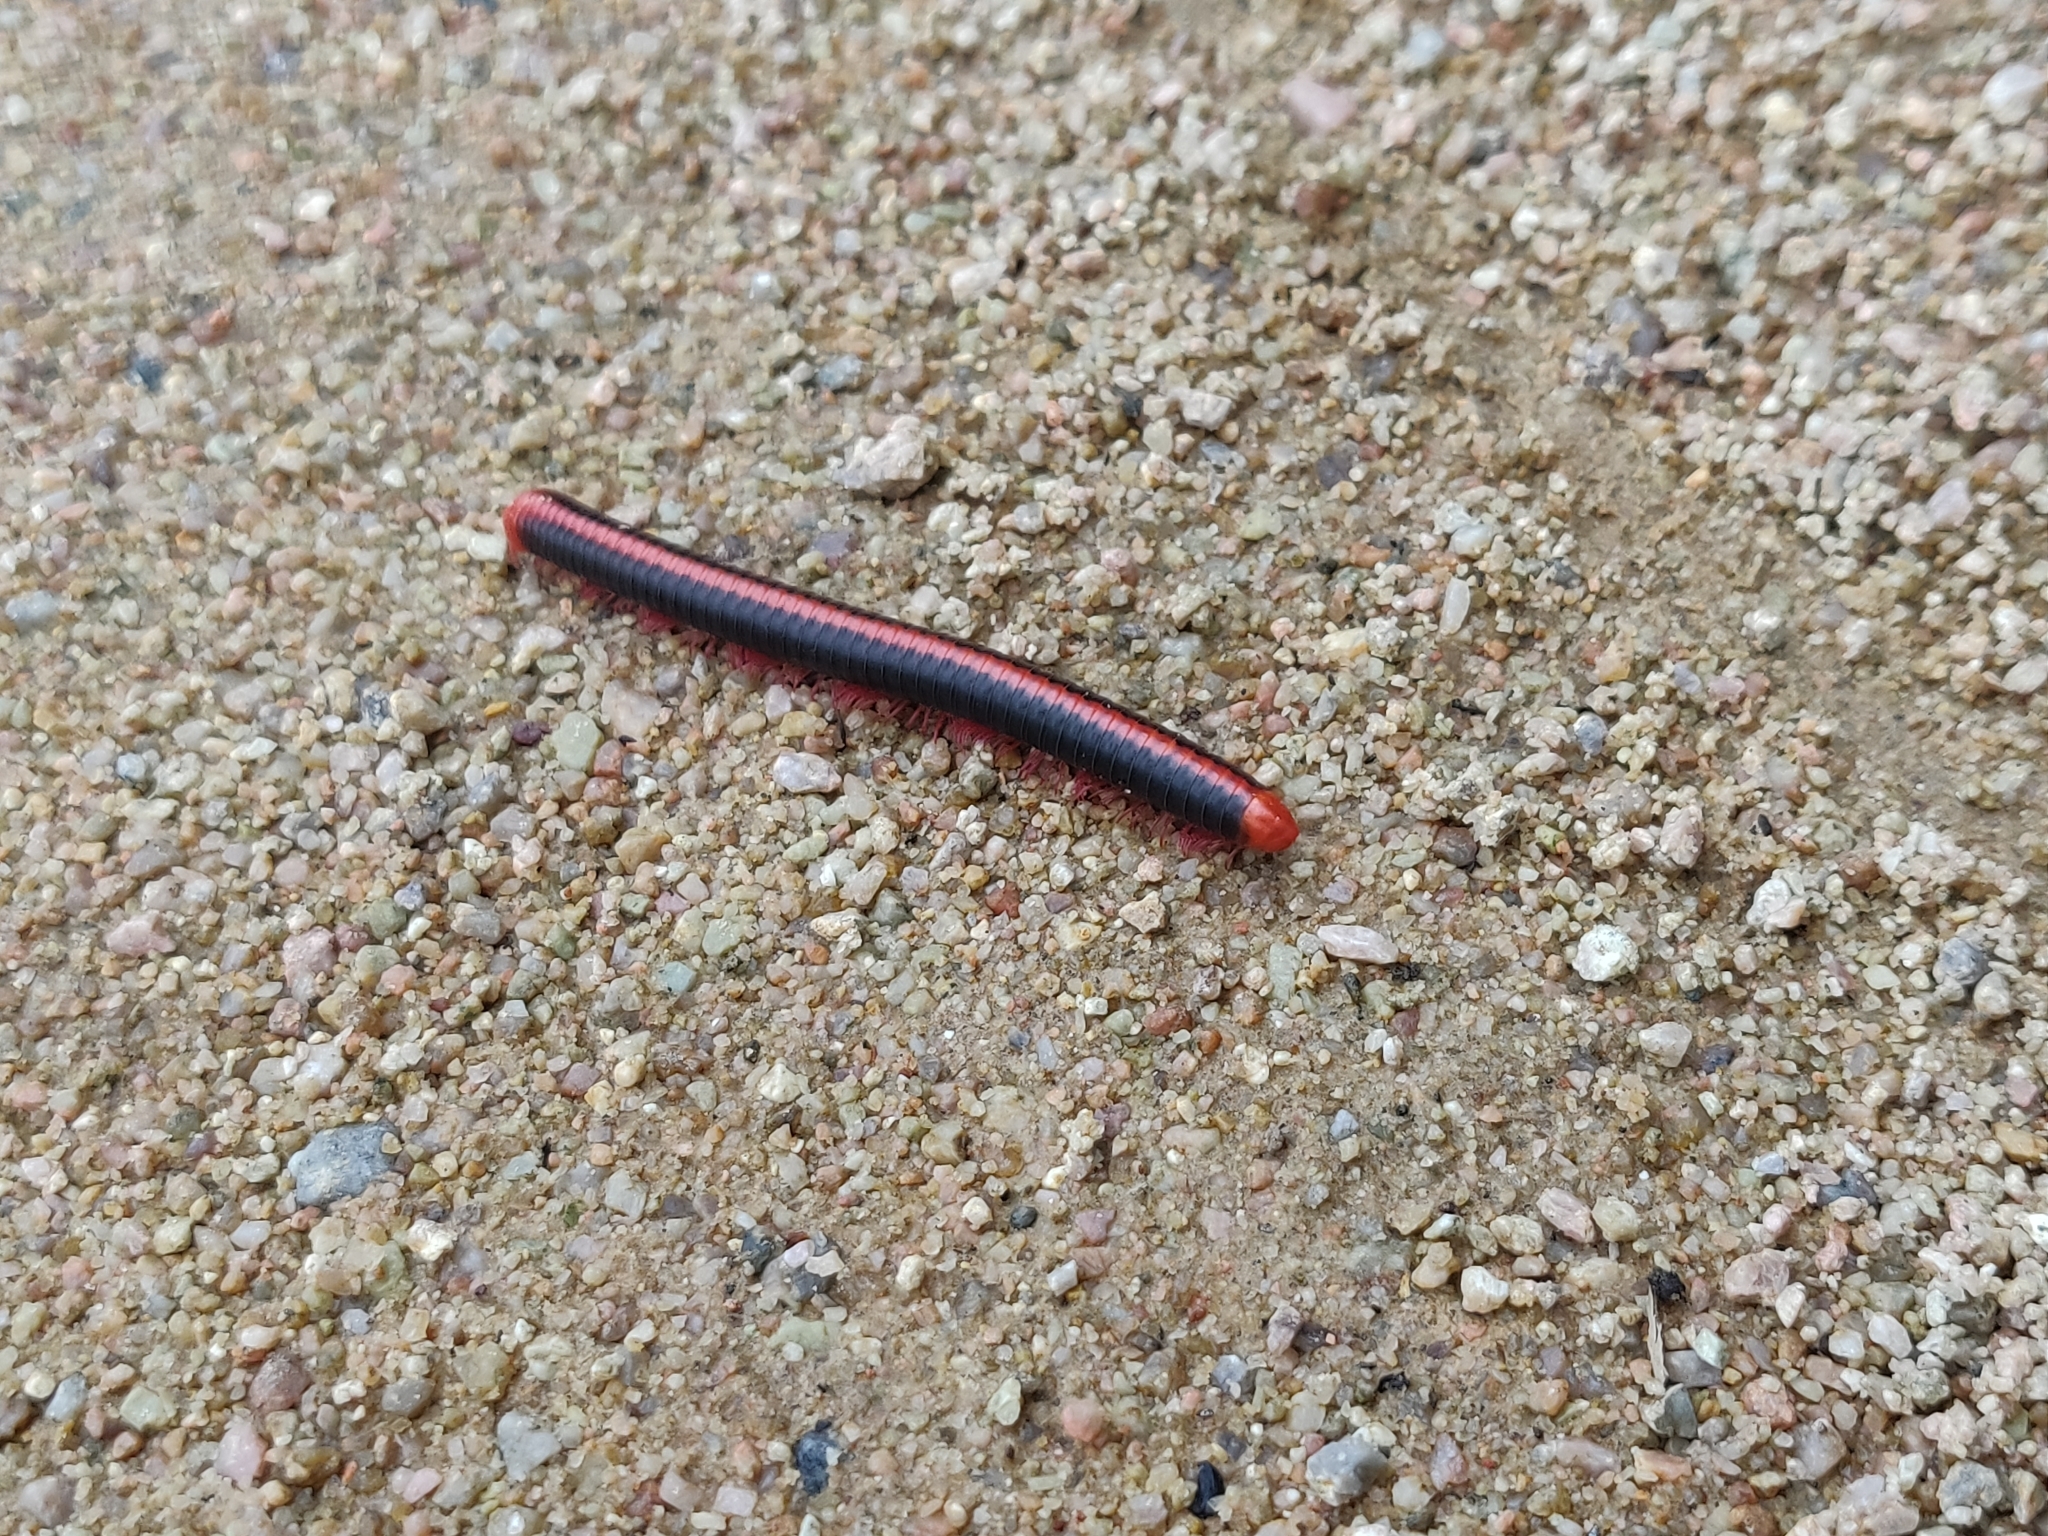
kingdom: Animalia
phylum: Arthropoda
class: Diplopoda
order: Spirobolida
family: Pachybolidae
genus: Xenobolus
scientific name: Xenobolus carnifex
